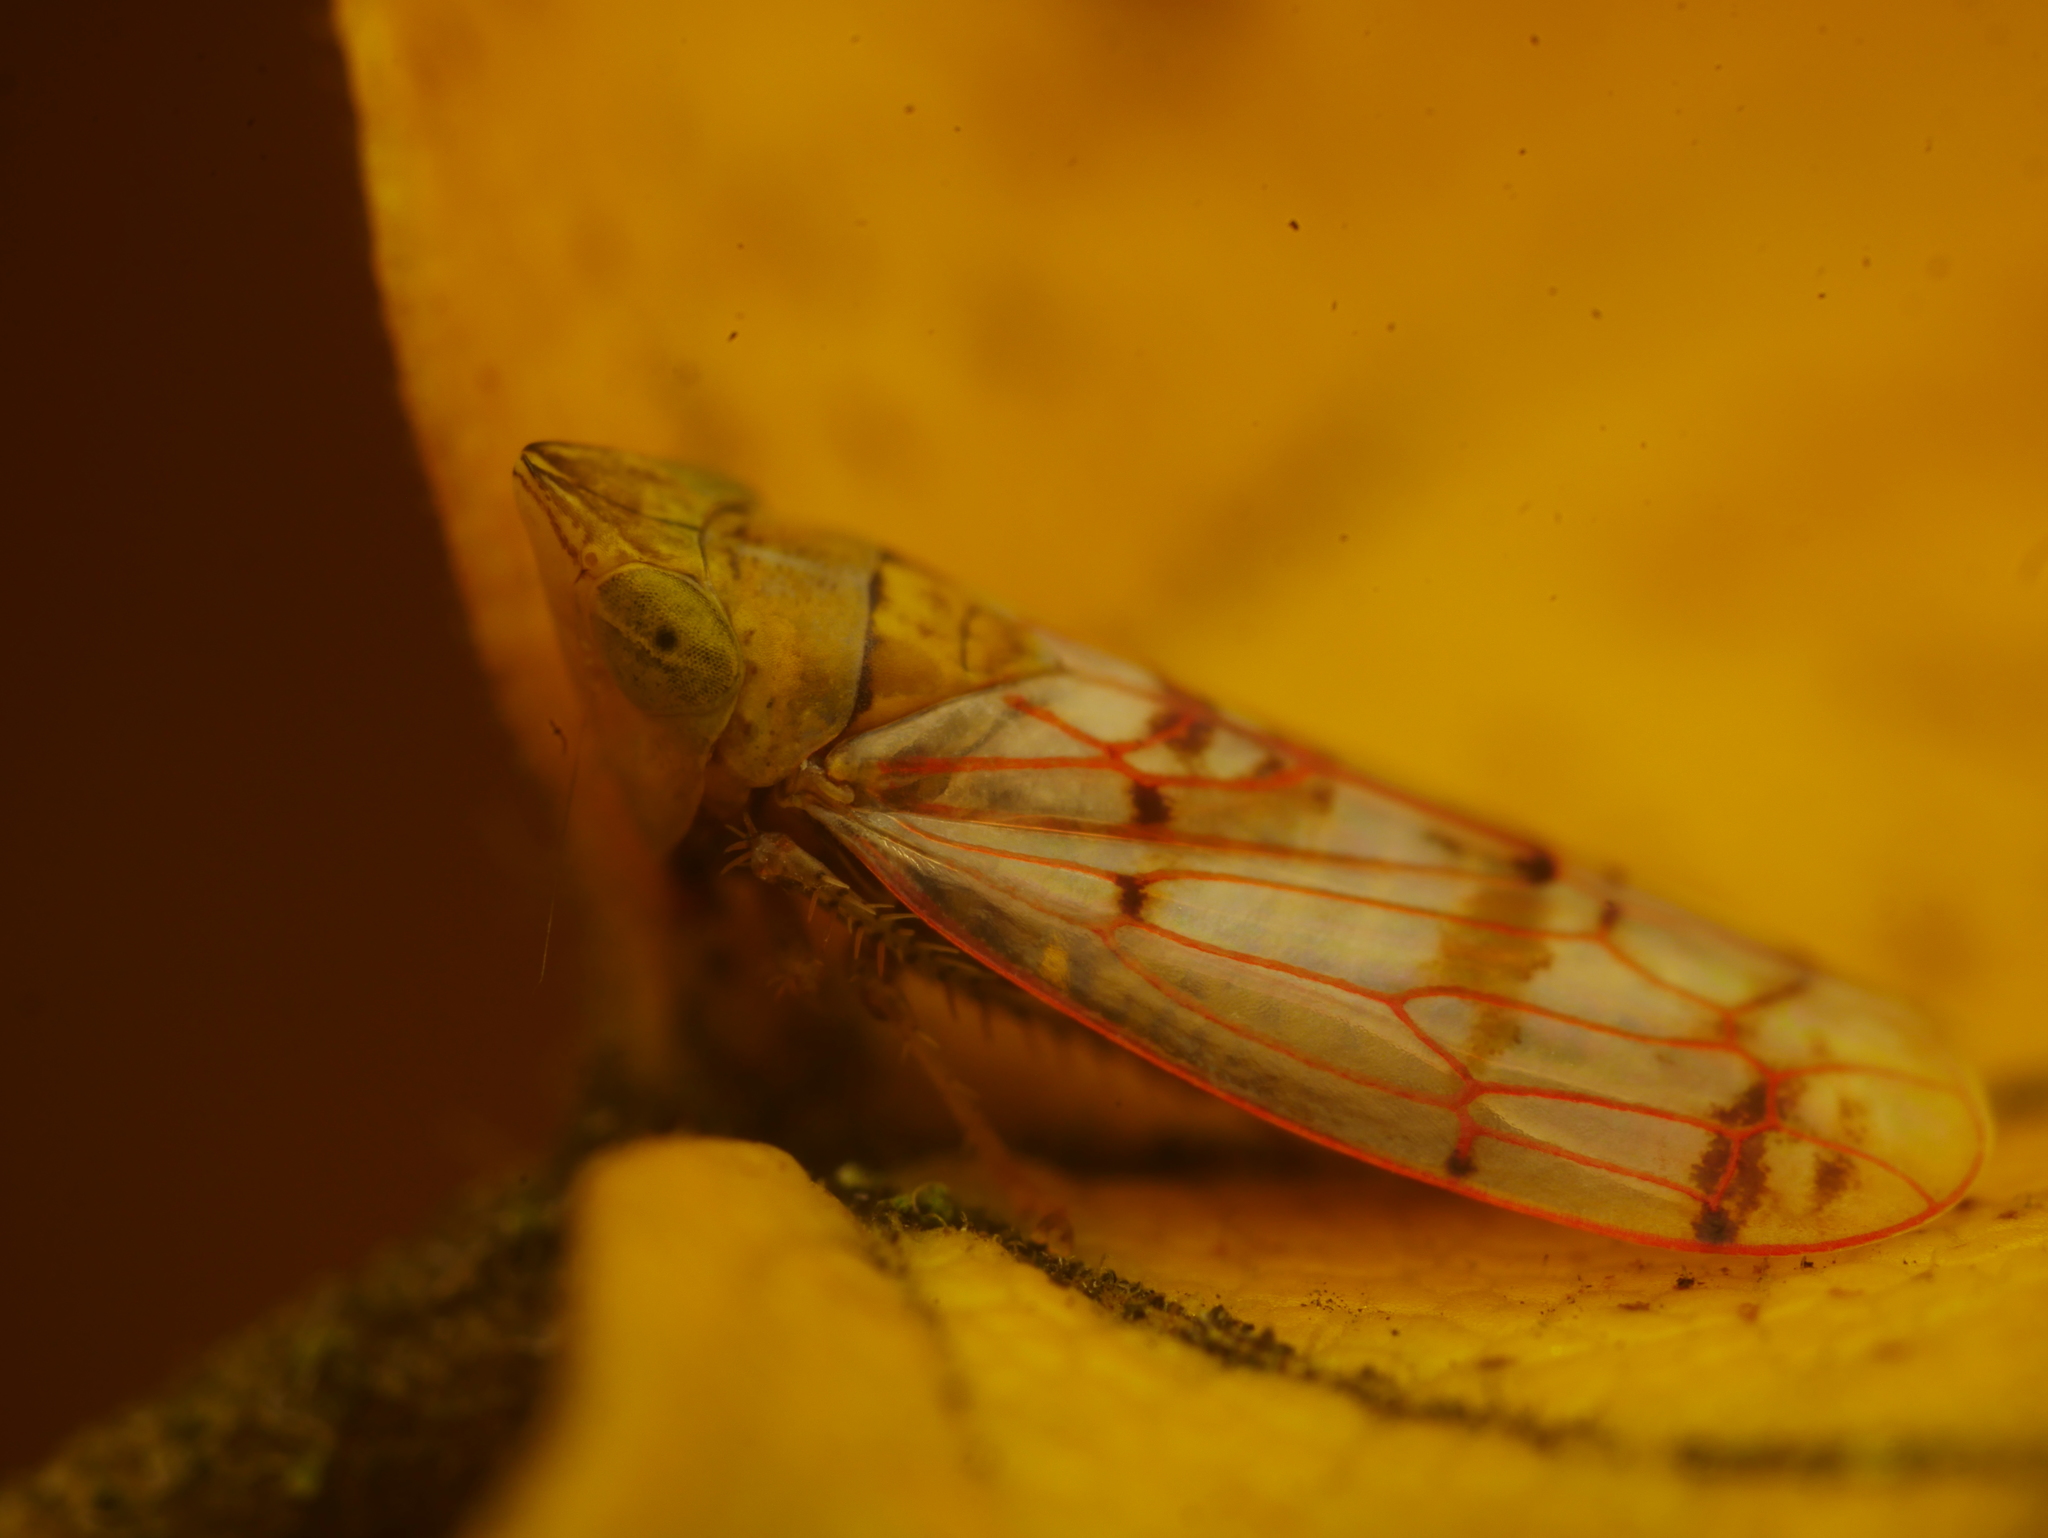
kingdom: Animalia
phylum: Arthropoda
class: Insecta
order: Hemiptera
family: Cicadellidae
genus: Japananus
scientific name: Japananus hyalinus
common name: The japanese maple leafhopper
